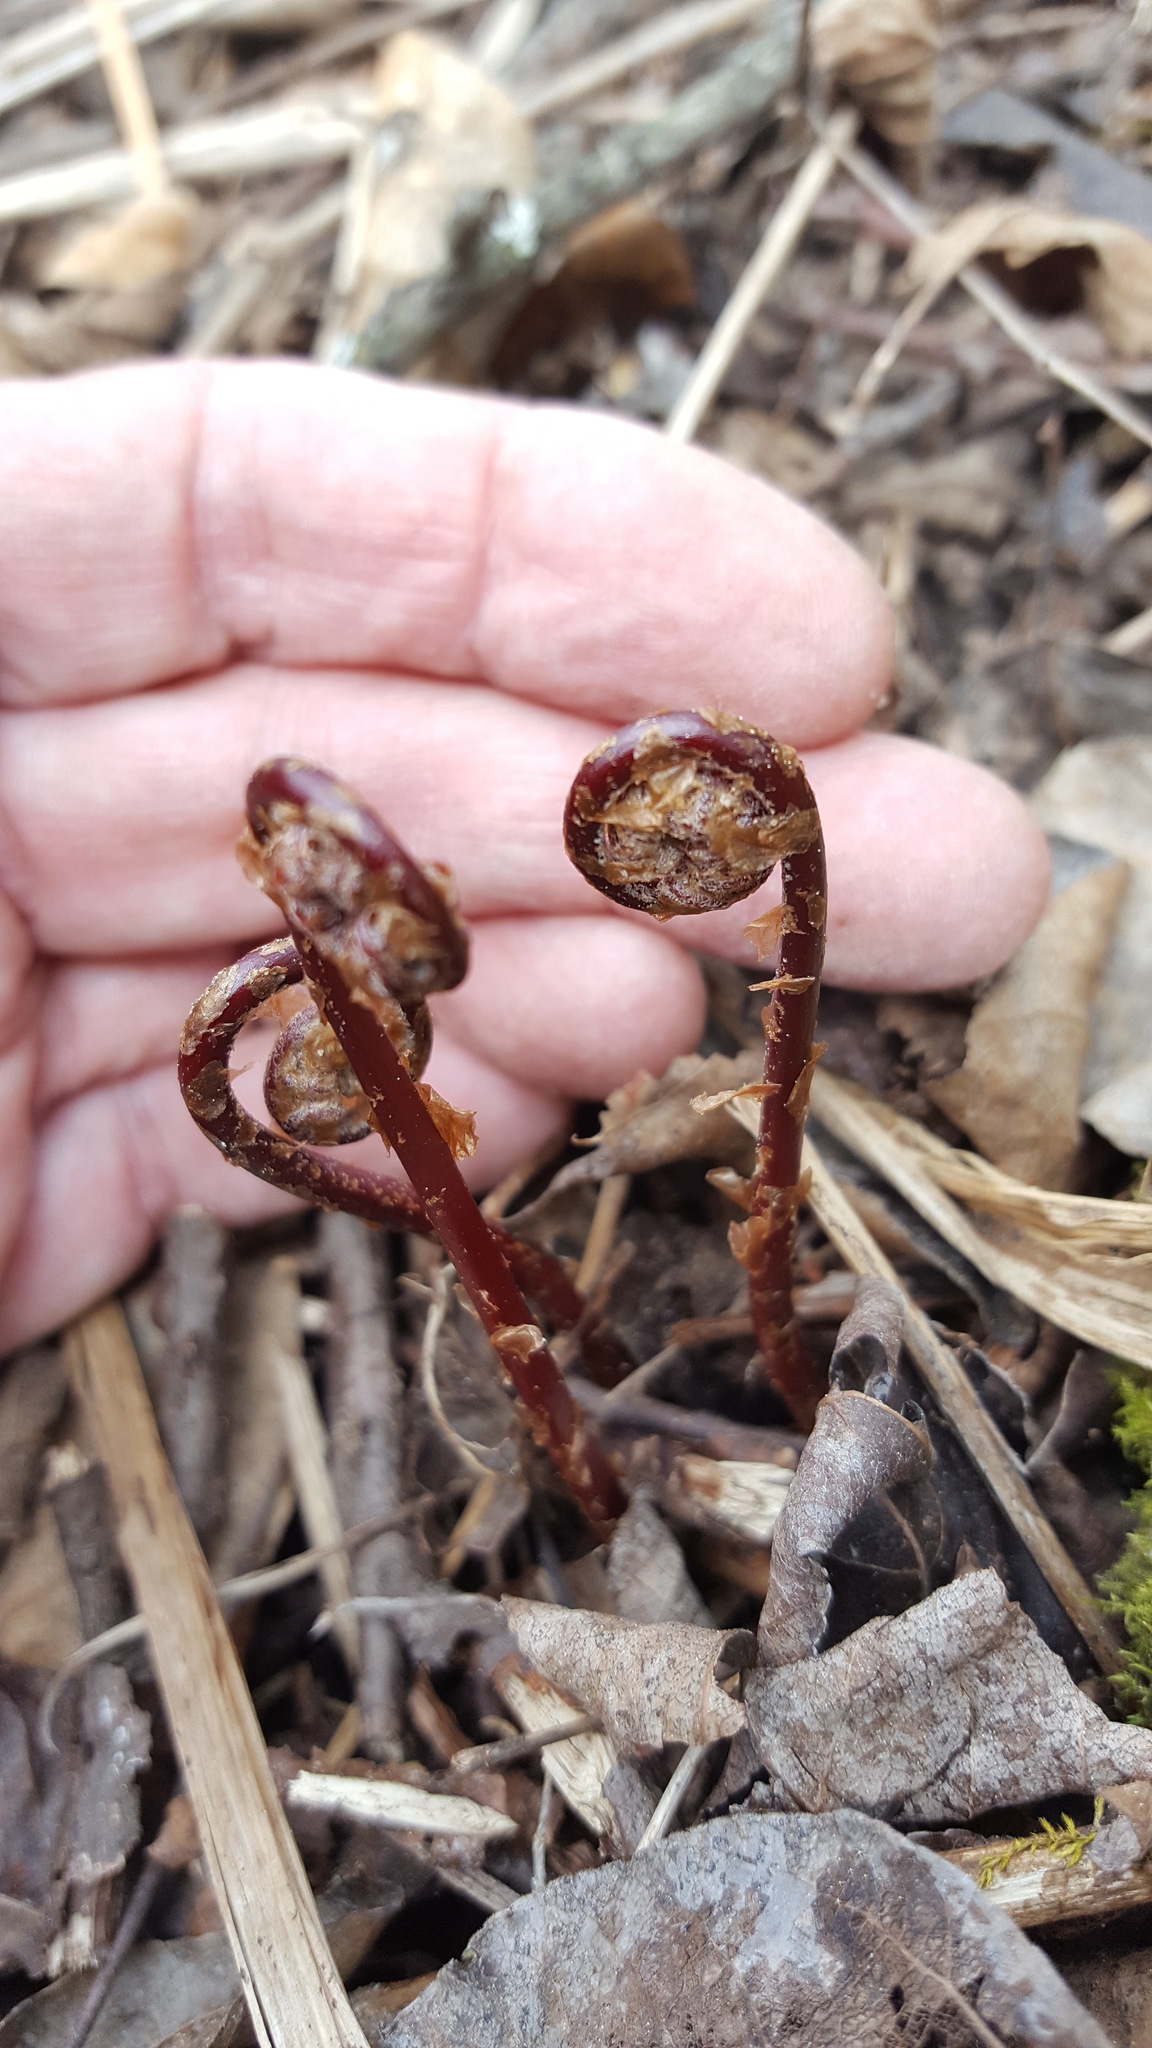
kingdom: Plantae
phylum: Tracheophyta
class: Polypodiopsida
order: Polypodiales
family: Athyriaceae
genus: Athyrium
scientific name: Athyrium angustum
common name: Northern lady fern
